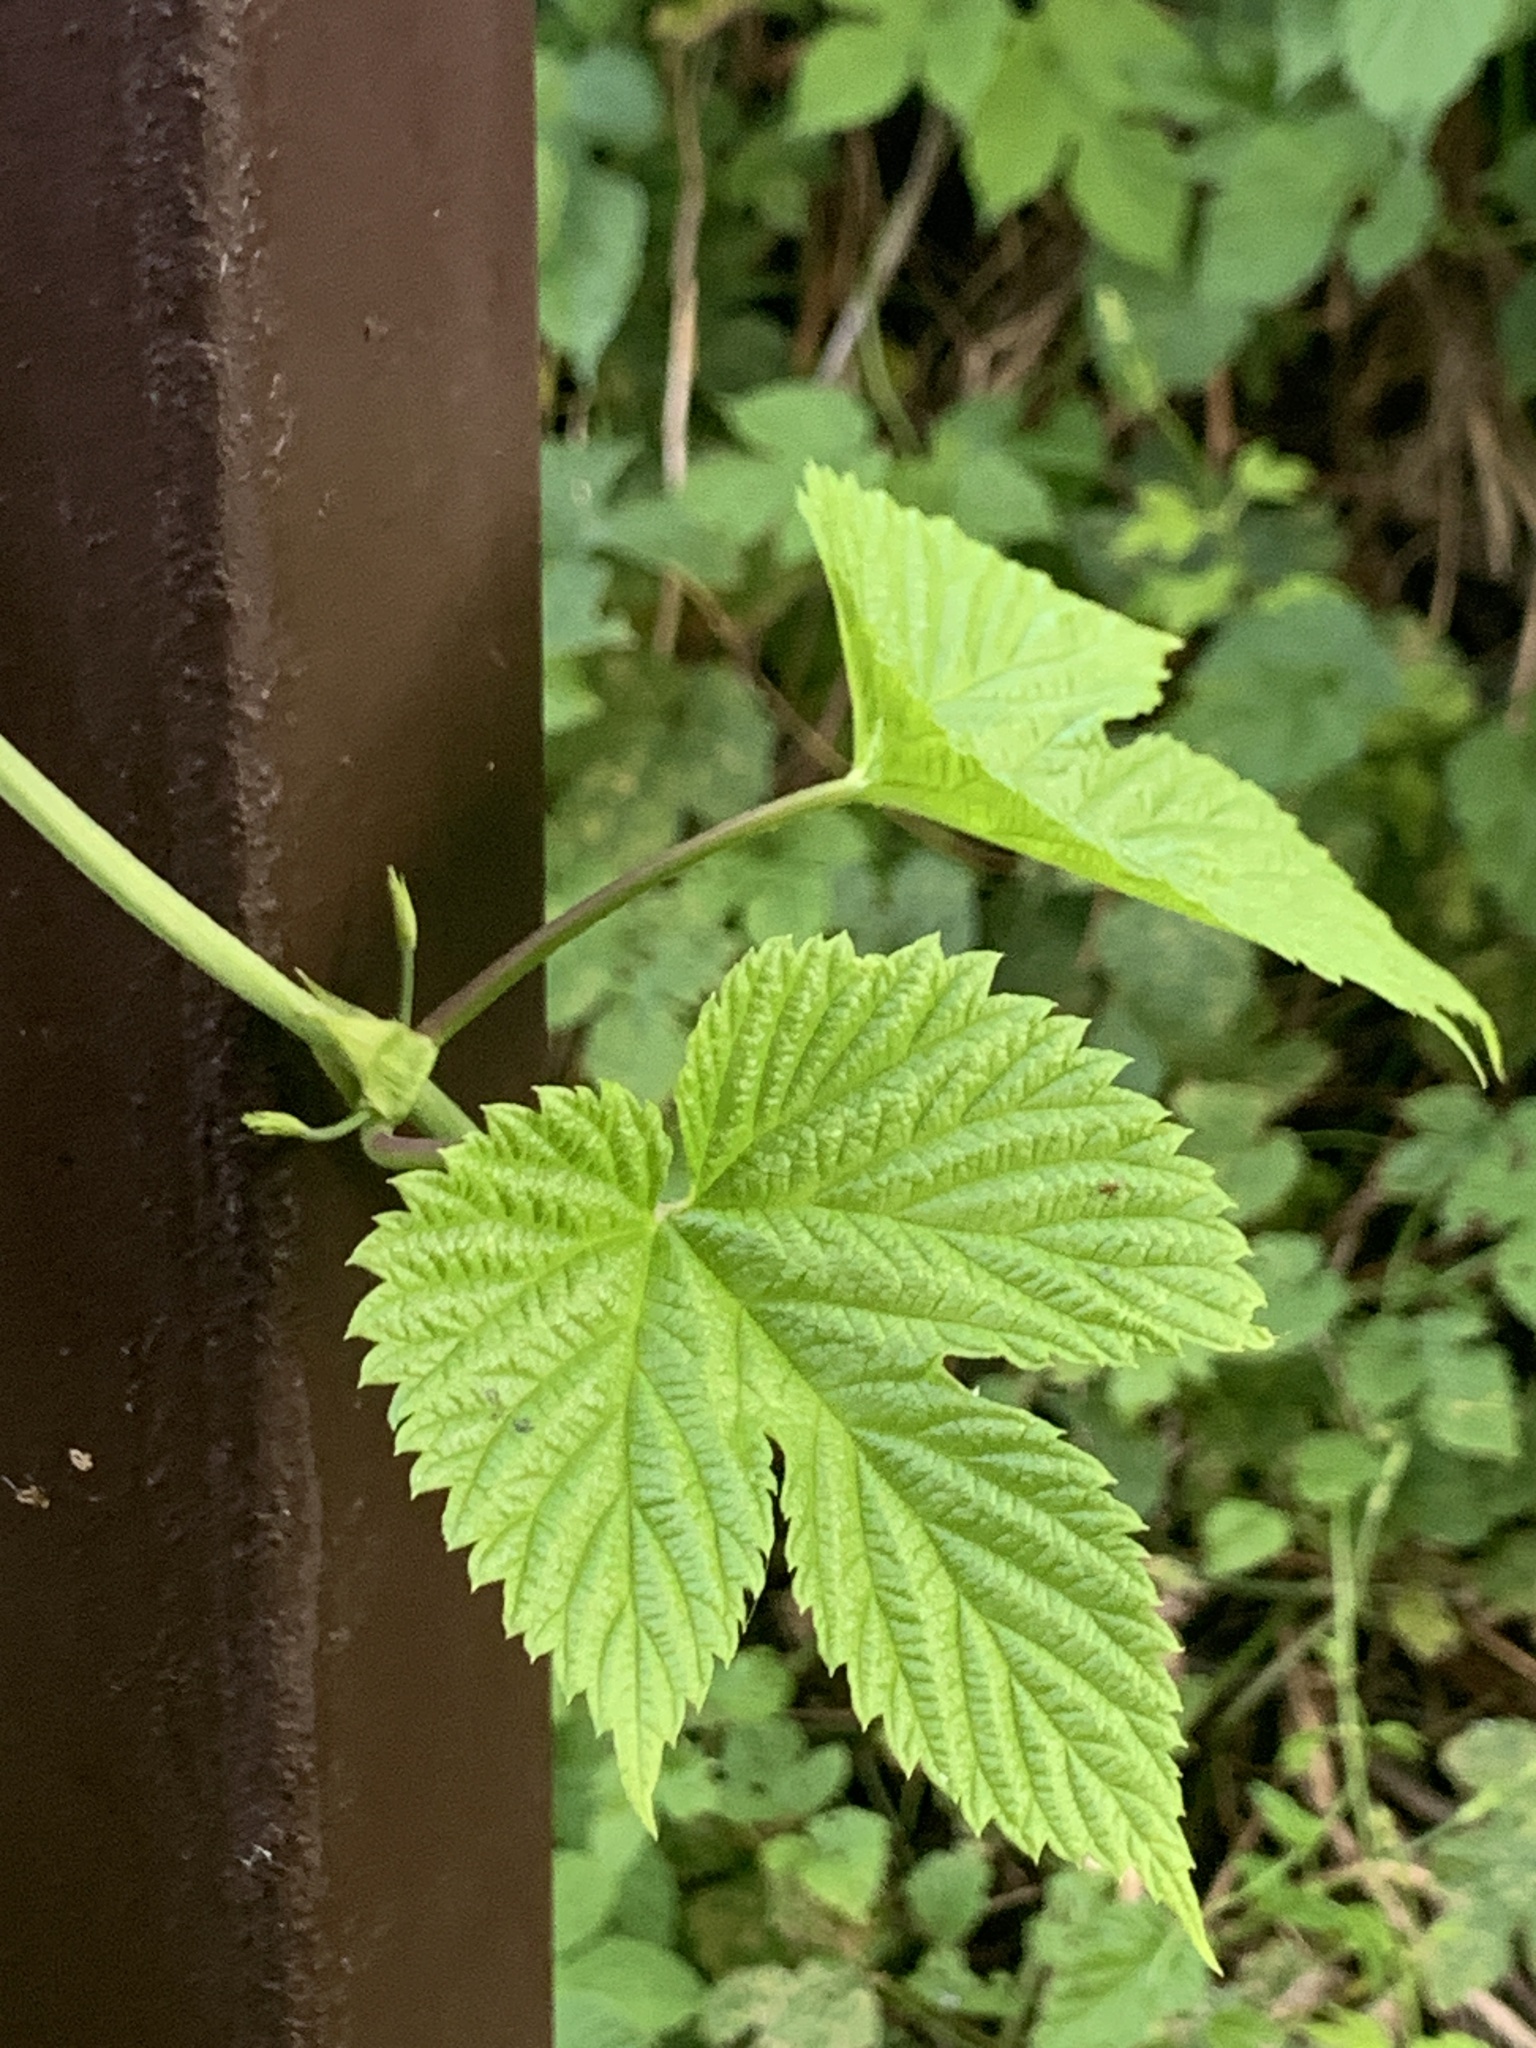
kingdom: Plantae
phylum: Tracheophyta
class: Magnoliopsida
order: Rosales
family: Cannabaceae
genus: Humulus
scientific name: Humulus lupulus
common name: Hop
